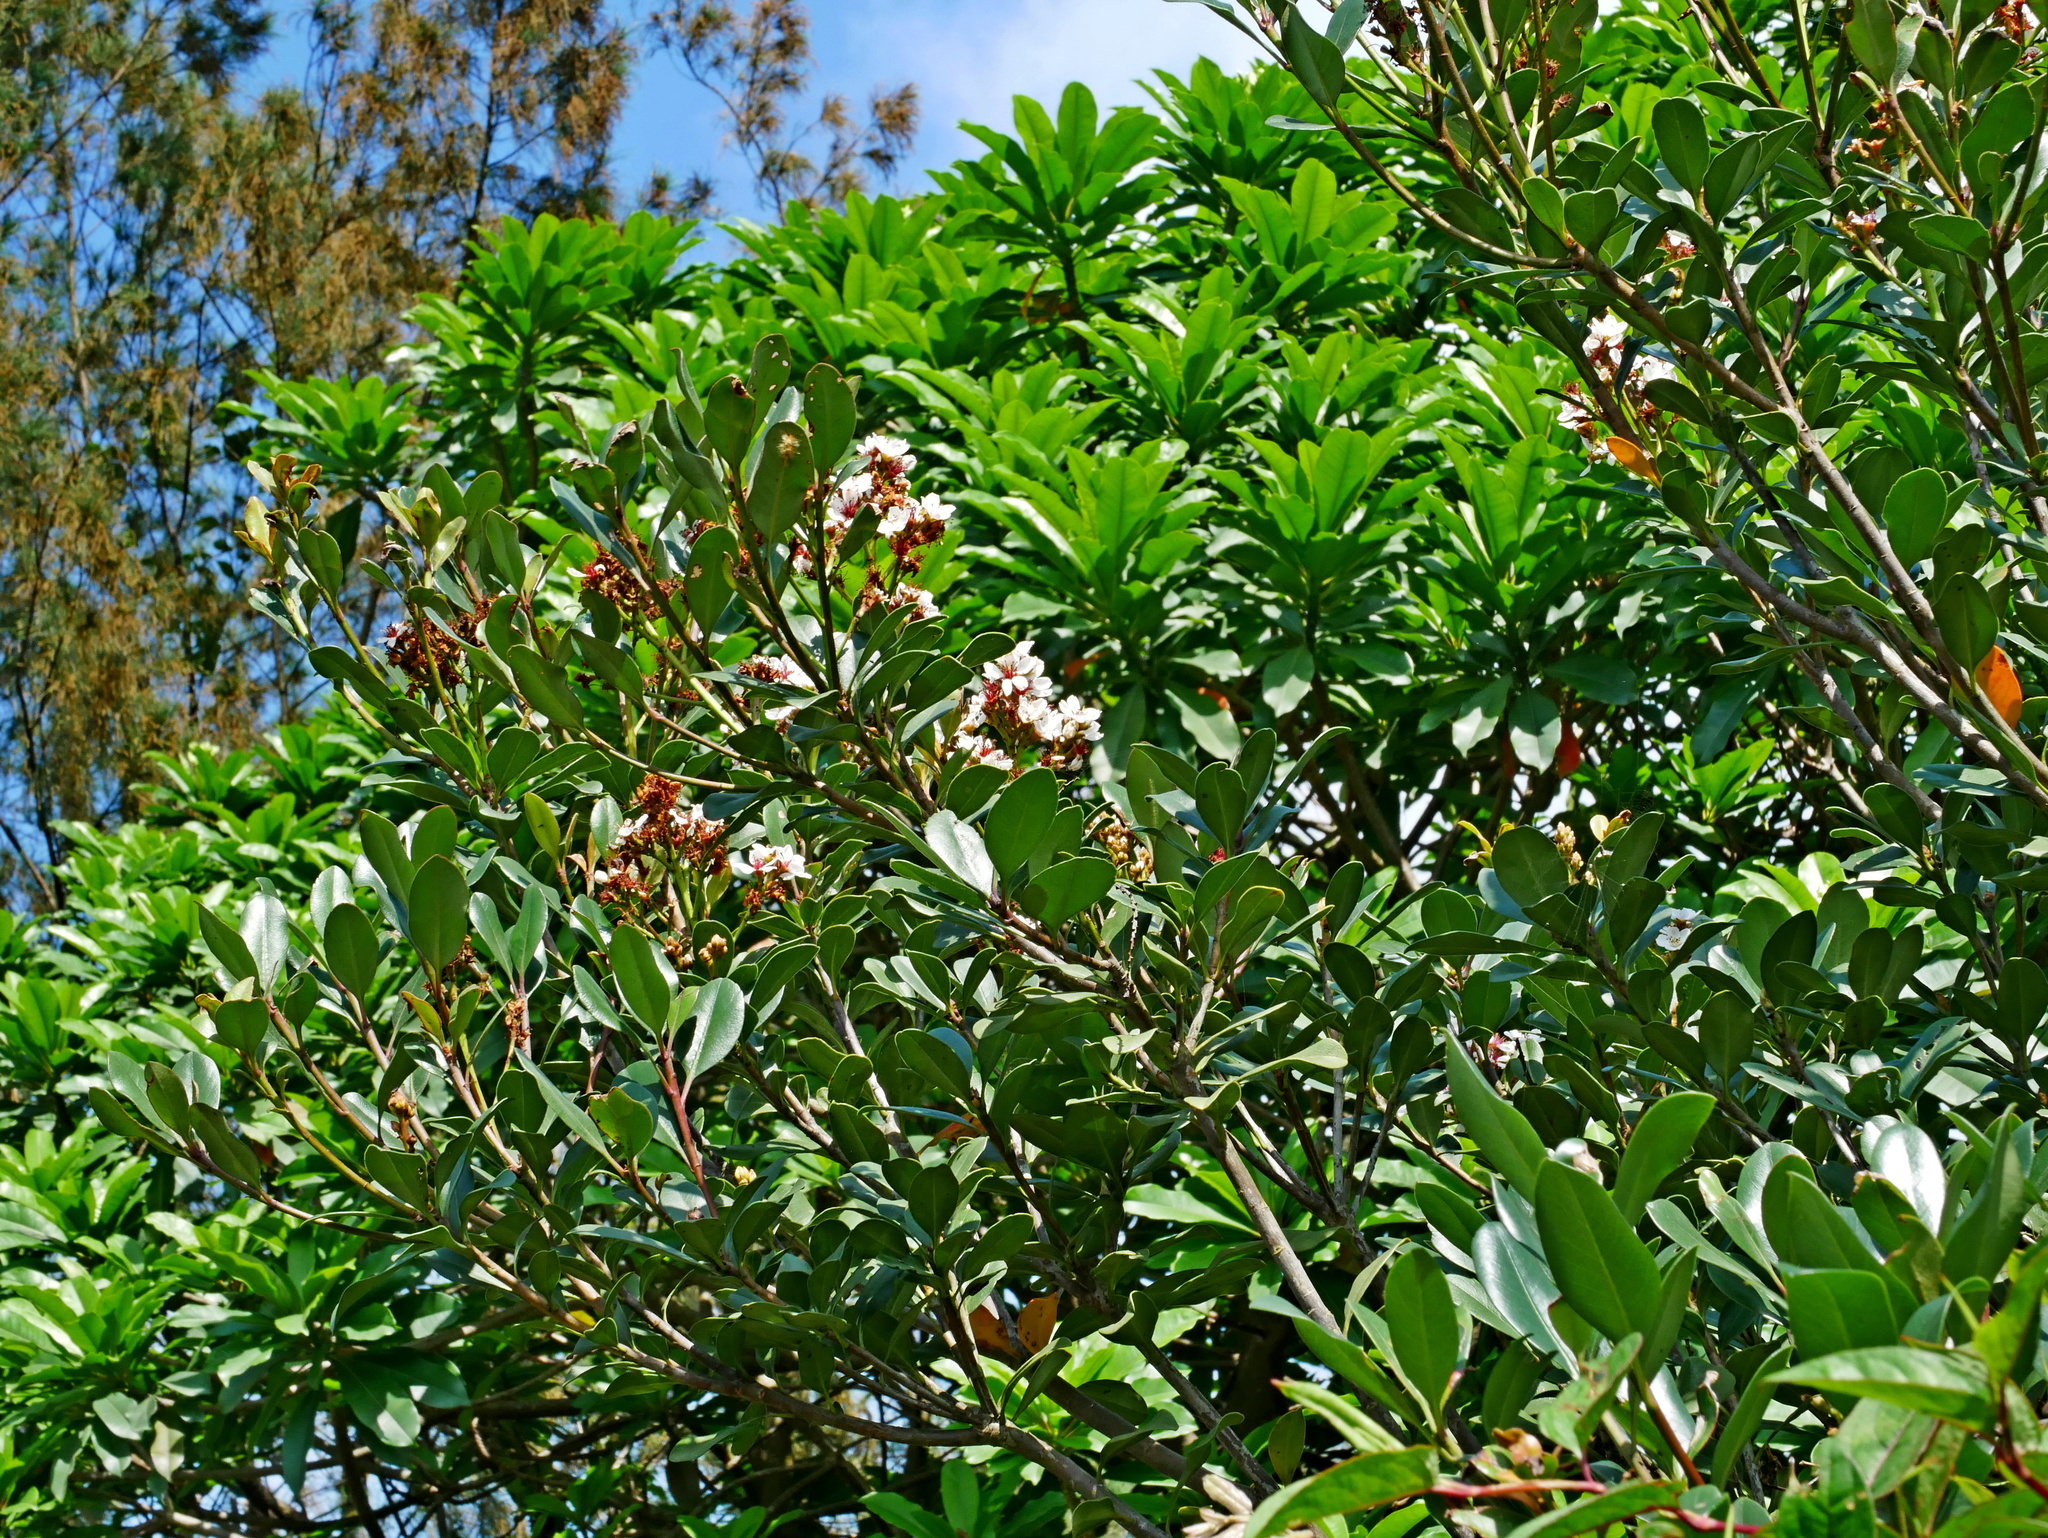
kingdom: Plantae
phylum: Tracheophyta
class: Magnoliopsida
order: Rosales
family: Rosaceae
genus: Rhaphiolepis
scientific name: Rhaphiolepis umbellata
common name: Yedda-hawthorn
